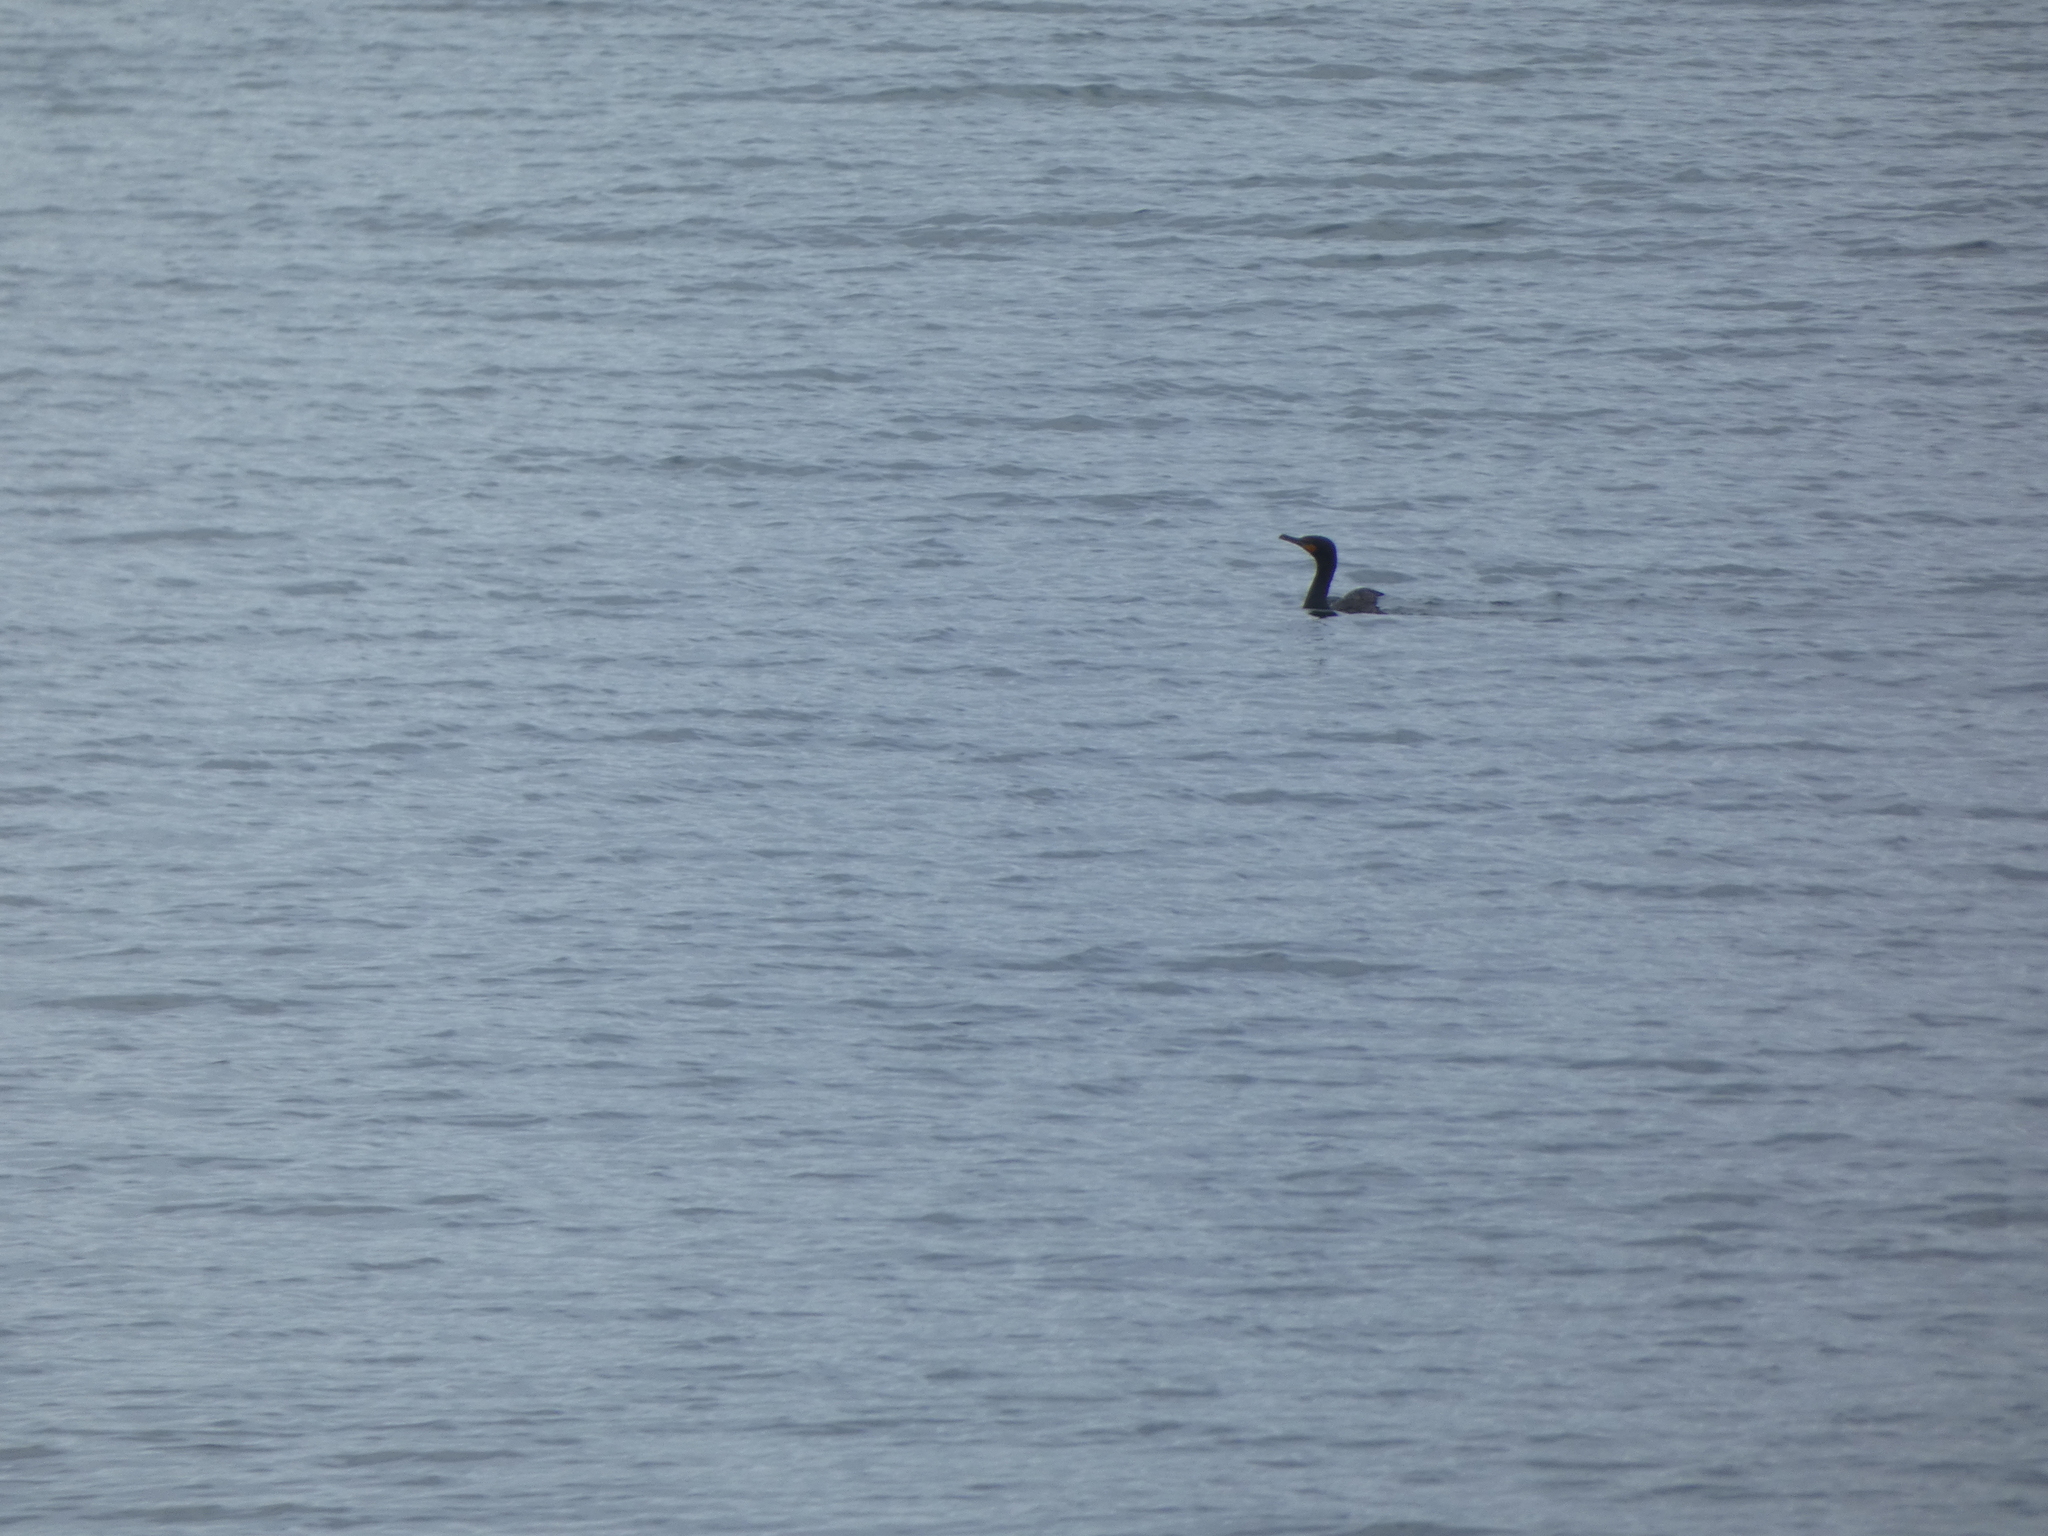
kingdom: Animalia
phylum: Chordata
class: Aves
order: Suliformes
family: Phalacrocoracidae
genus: Phalacrocorax
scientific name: Phalacrocorax auritus
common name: Double-crested cormorant
